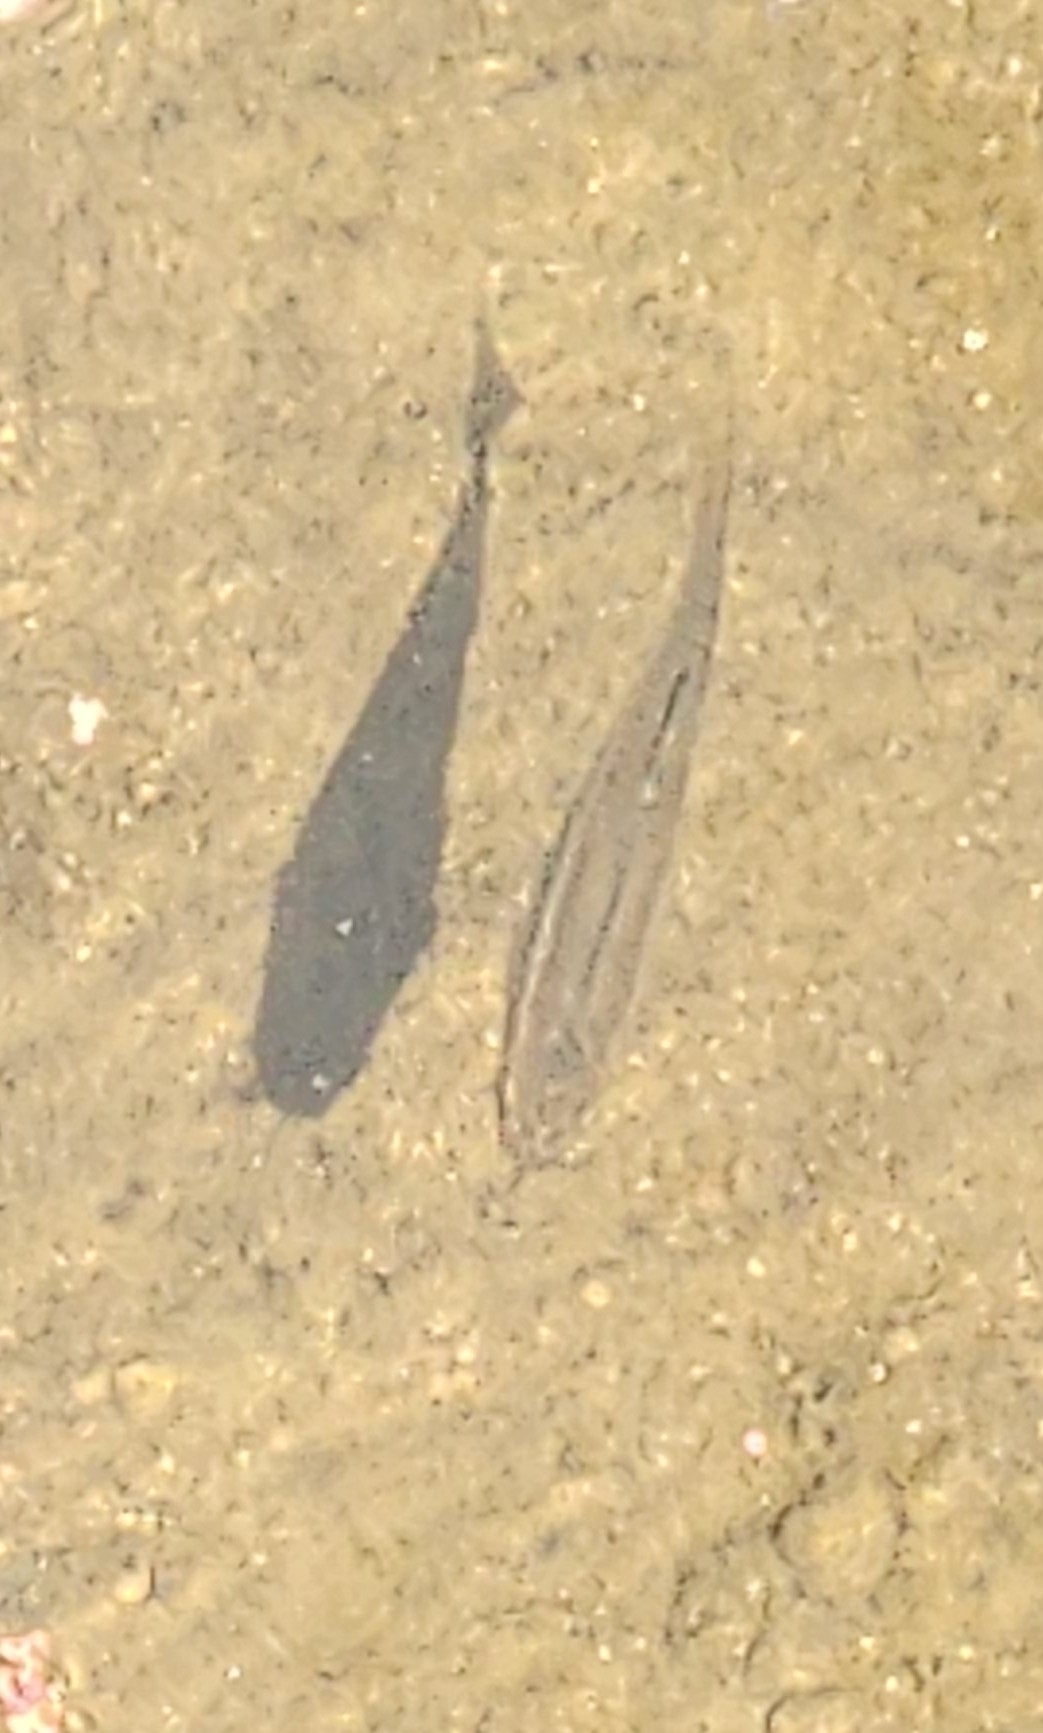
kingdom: Animalia
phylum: Chordata
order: Cypriniformes
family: Cyprinidae
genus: Semotilus
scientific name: Semotilus atromaculatus
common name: Creek chub
